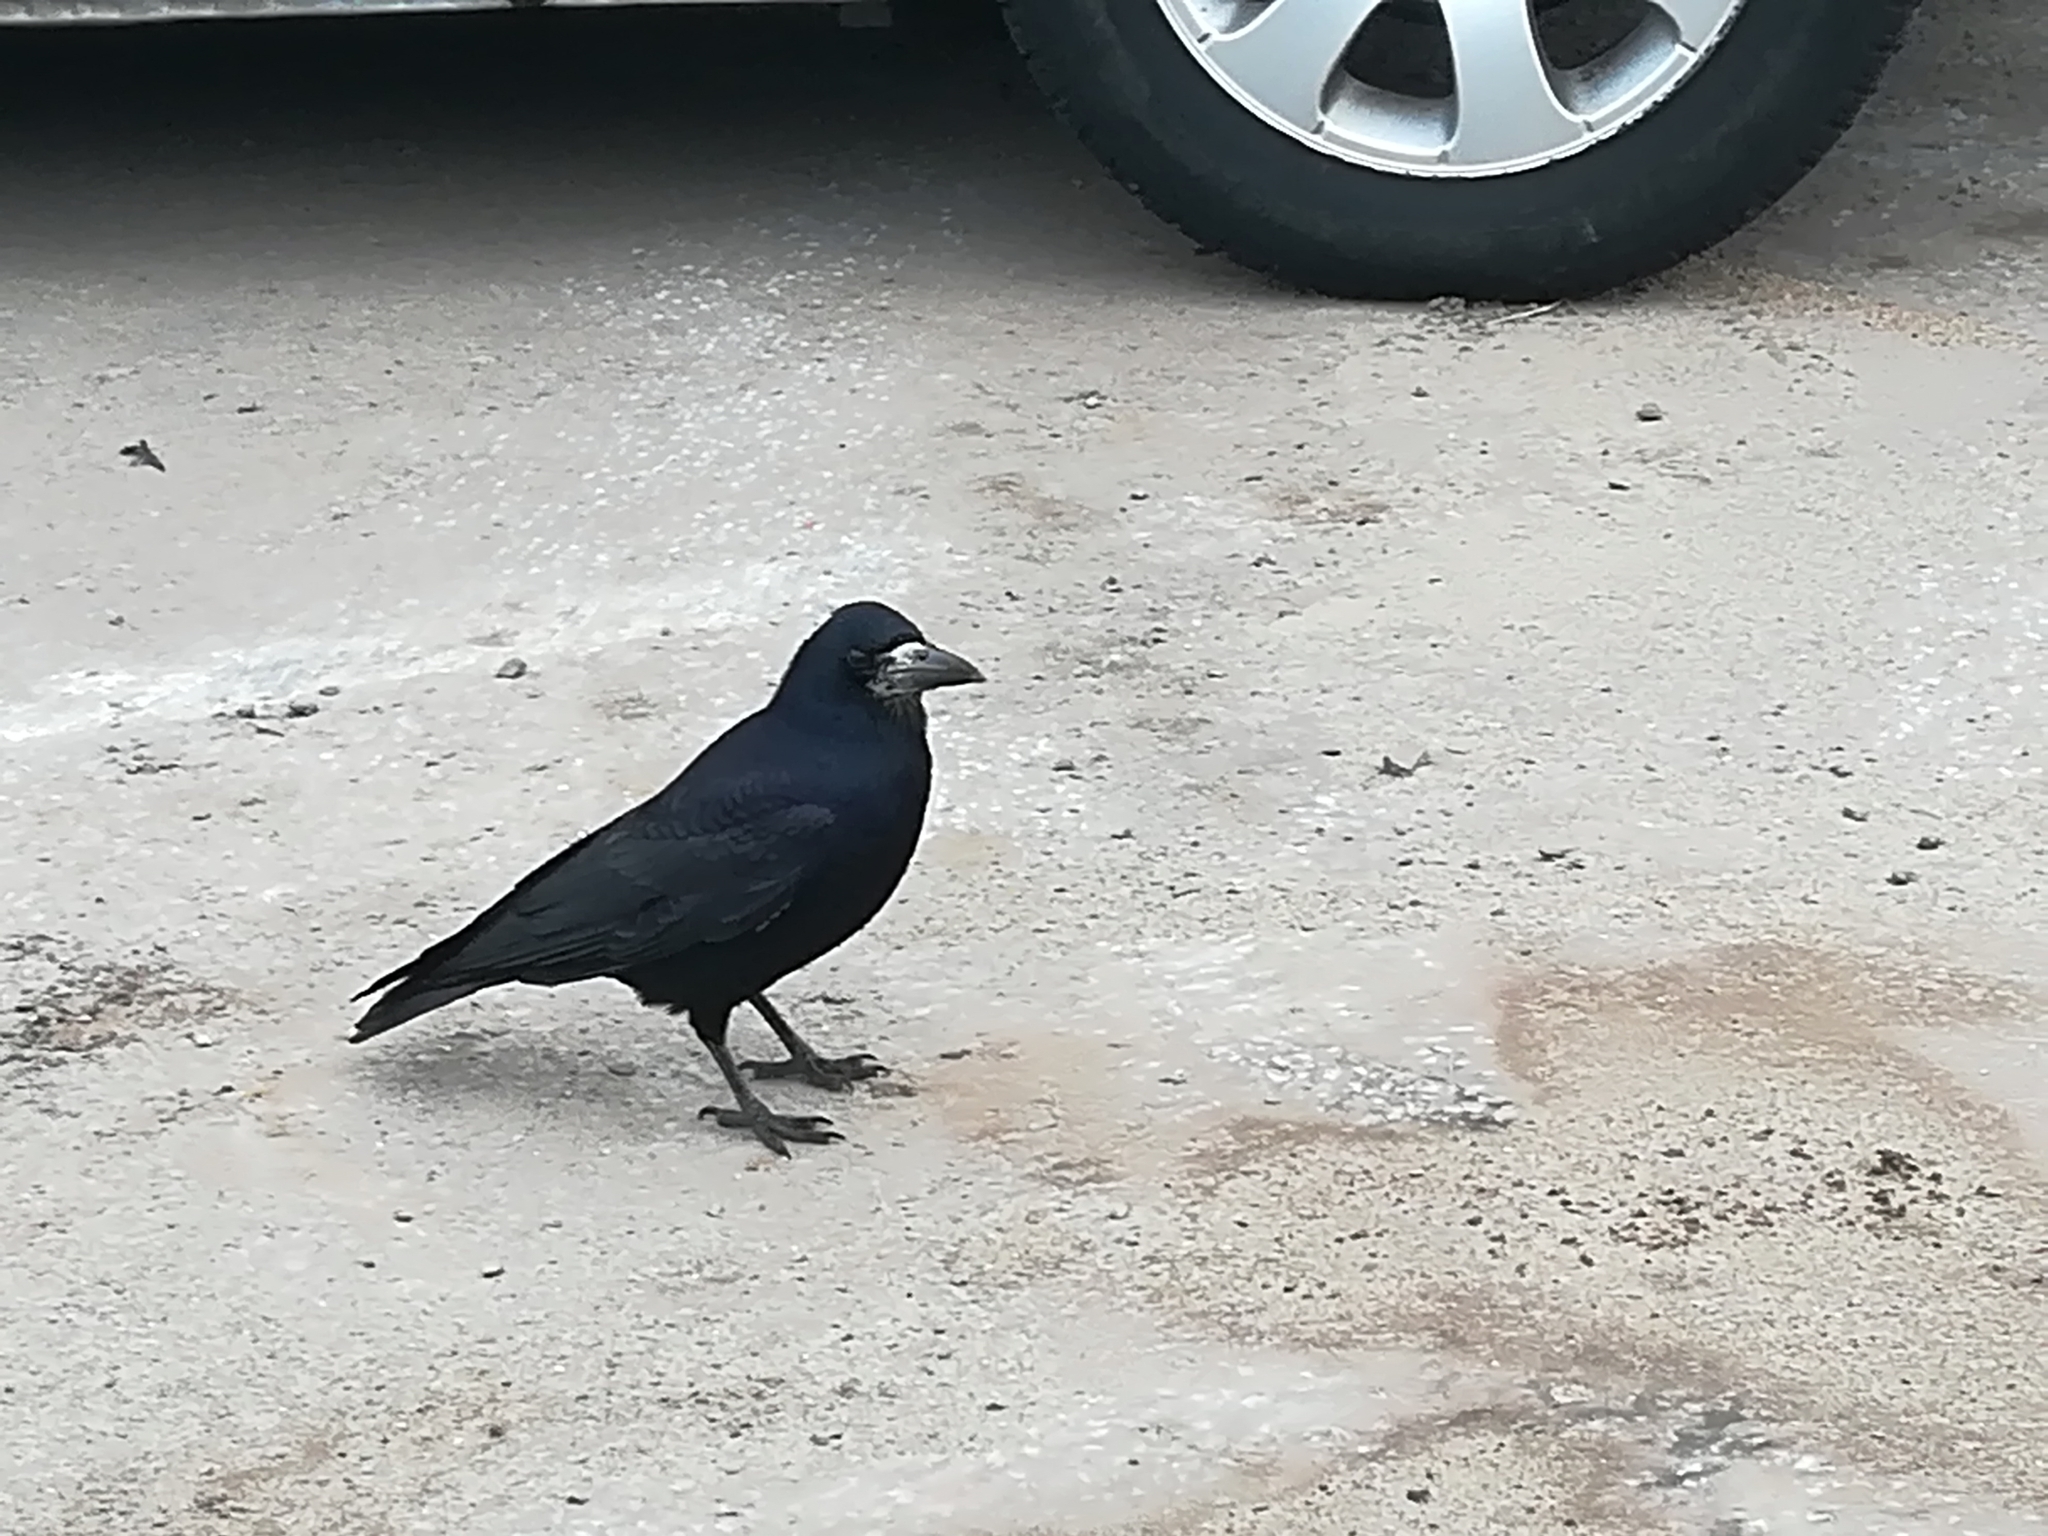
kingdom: Animalia
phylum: Chordata
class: Aves
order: Passeriformes
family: Corvidae
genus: Corvus
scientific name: Corvus frugilegus
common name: Rook
